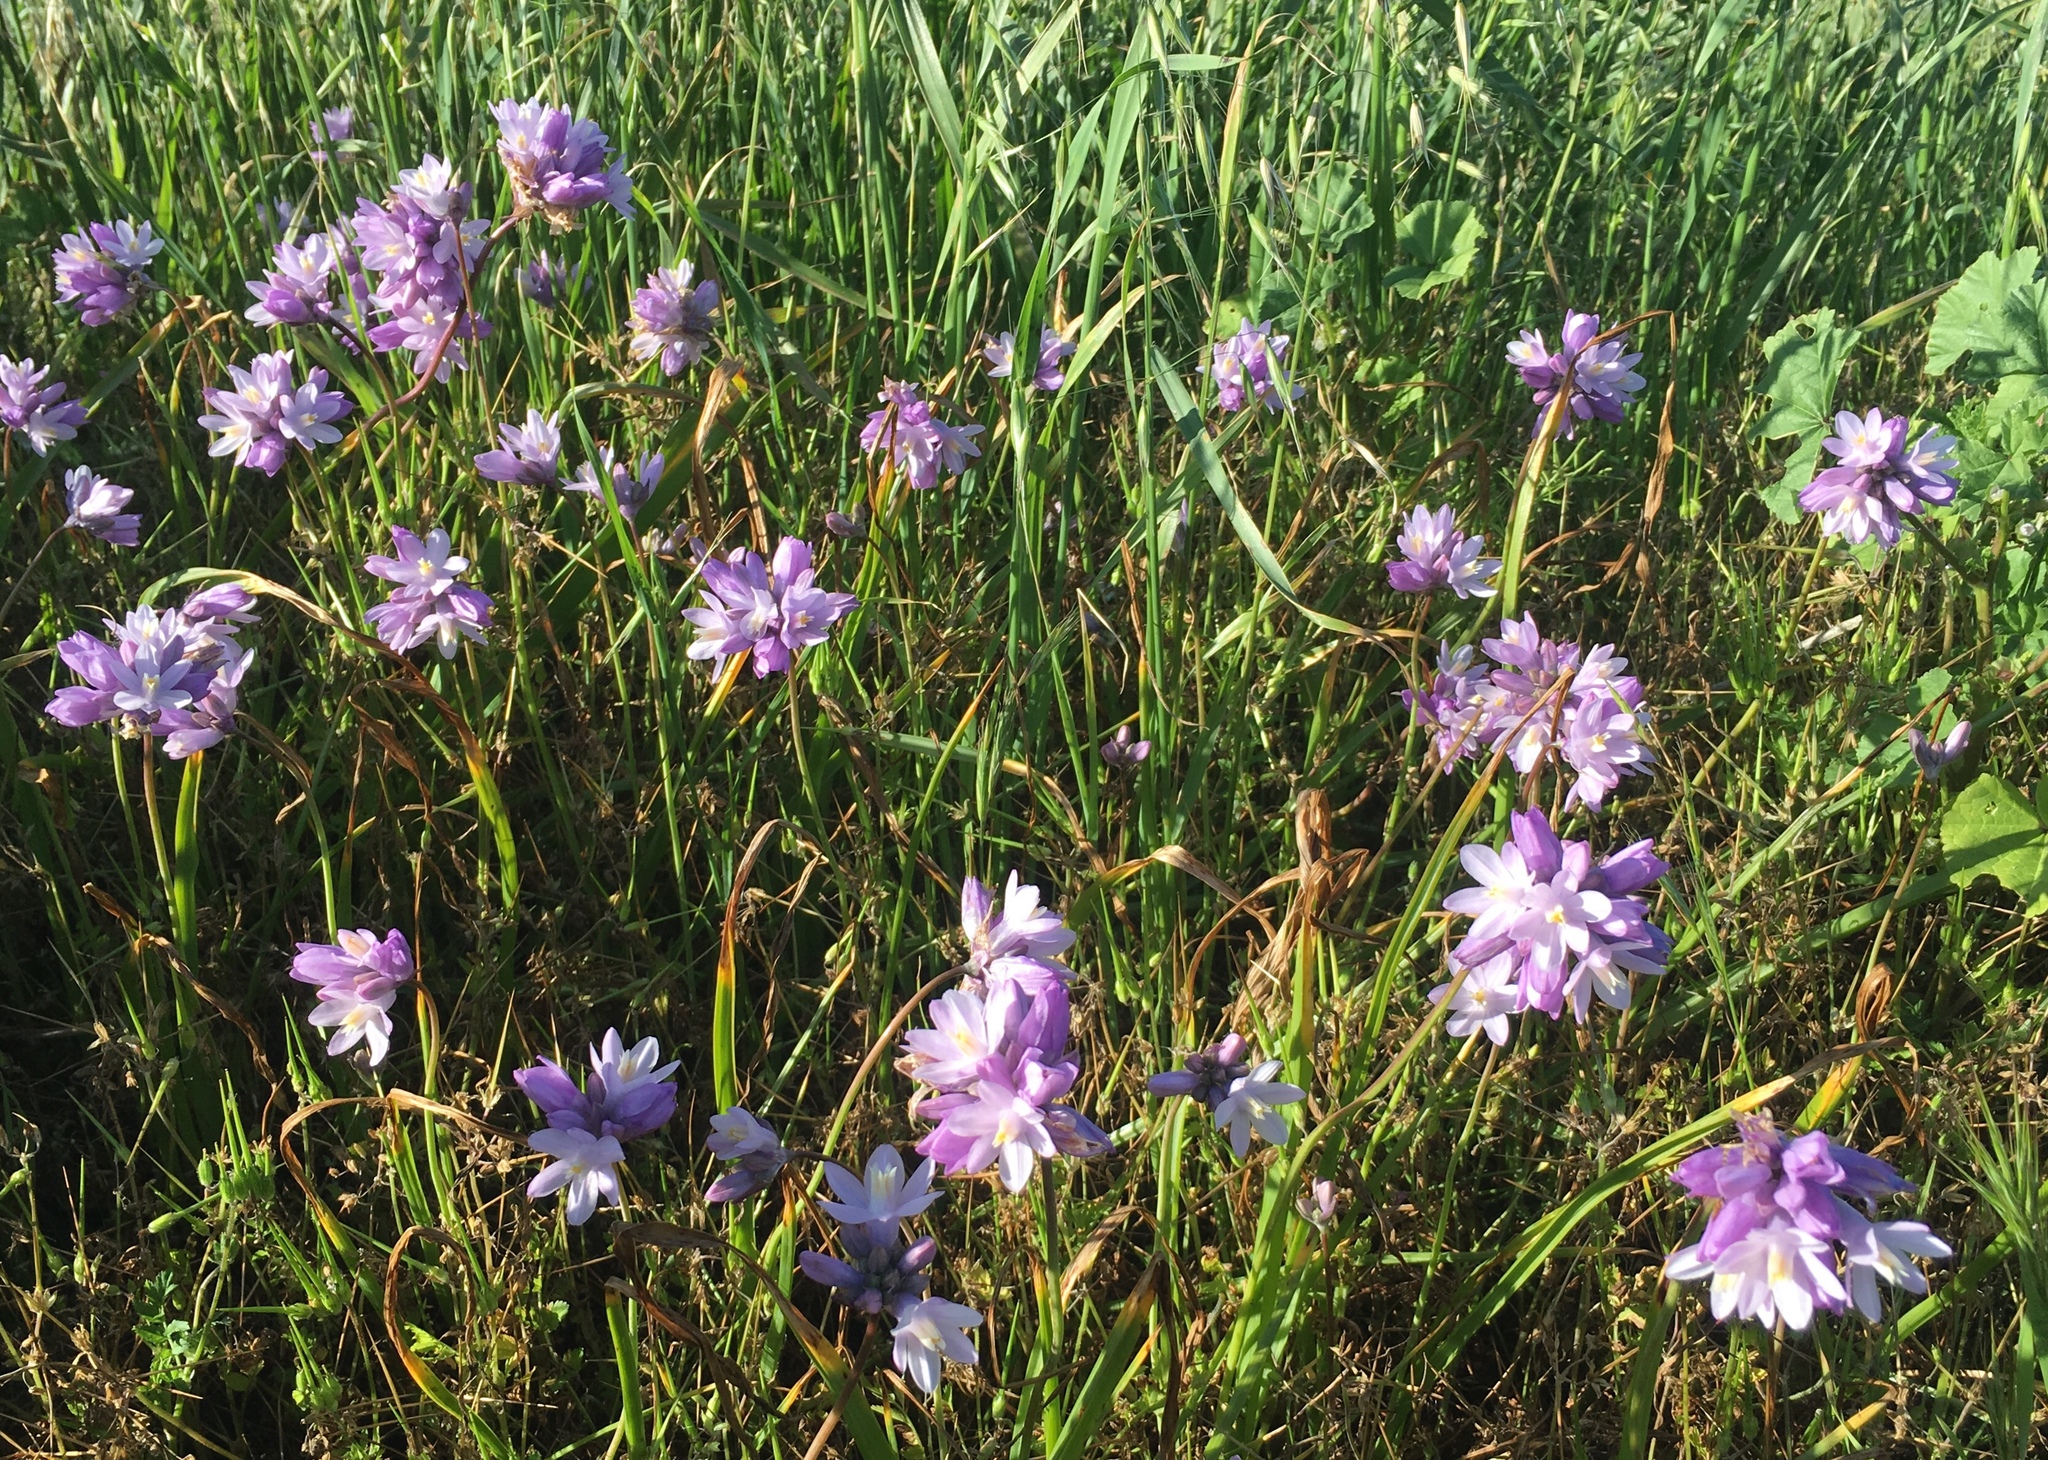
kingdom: Plantae
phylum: Tracheophyta
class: Liliopsida
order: Asparagales
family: Asparagaceae
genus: Dipterostemon
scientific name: Dipterostemon capitatus
